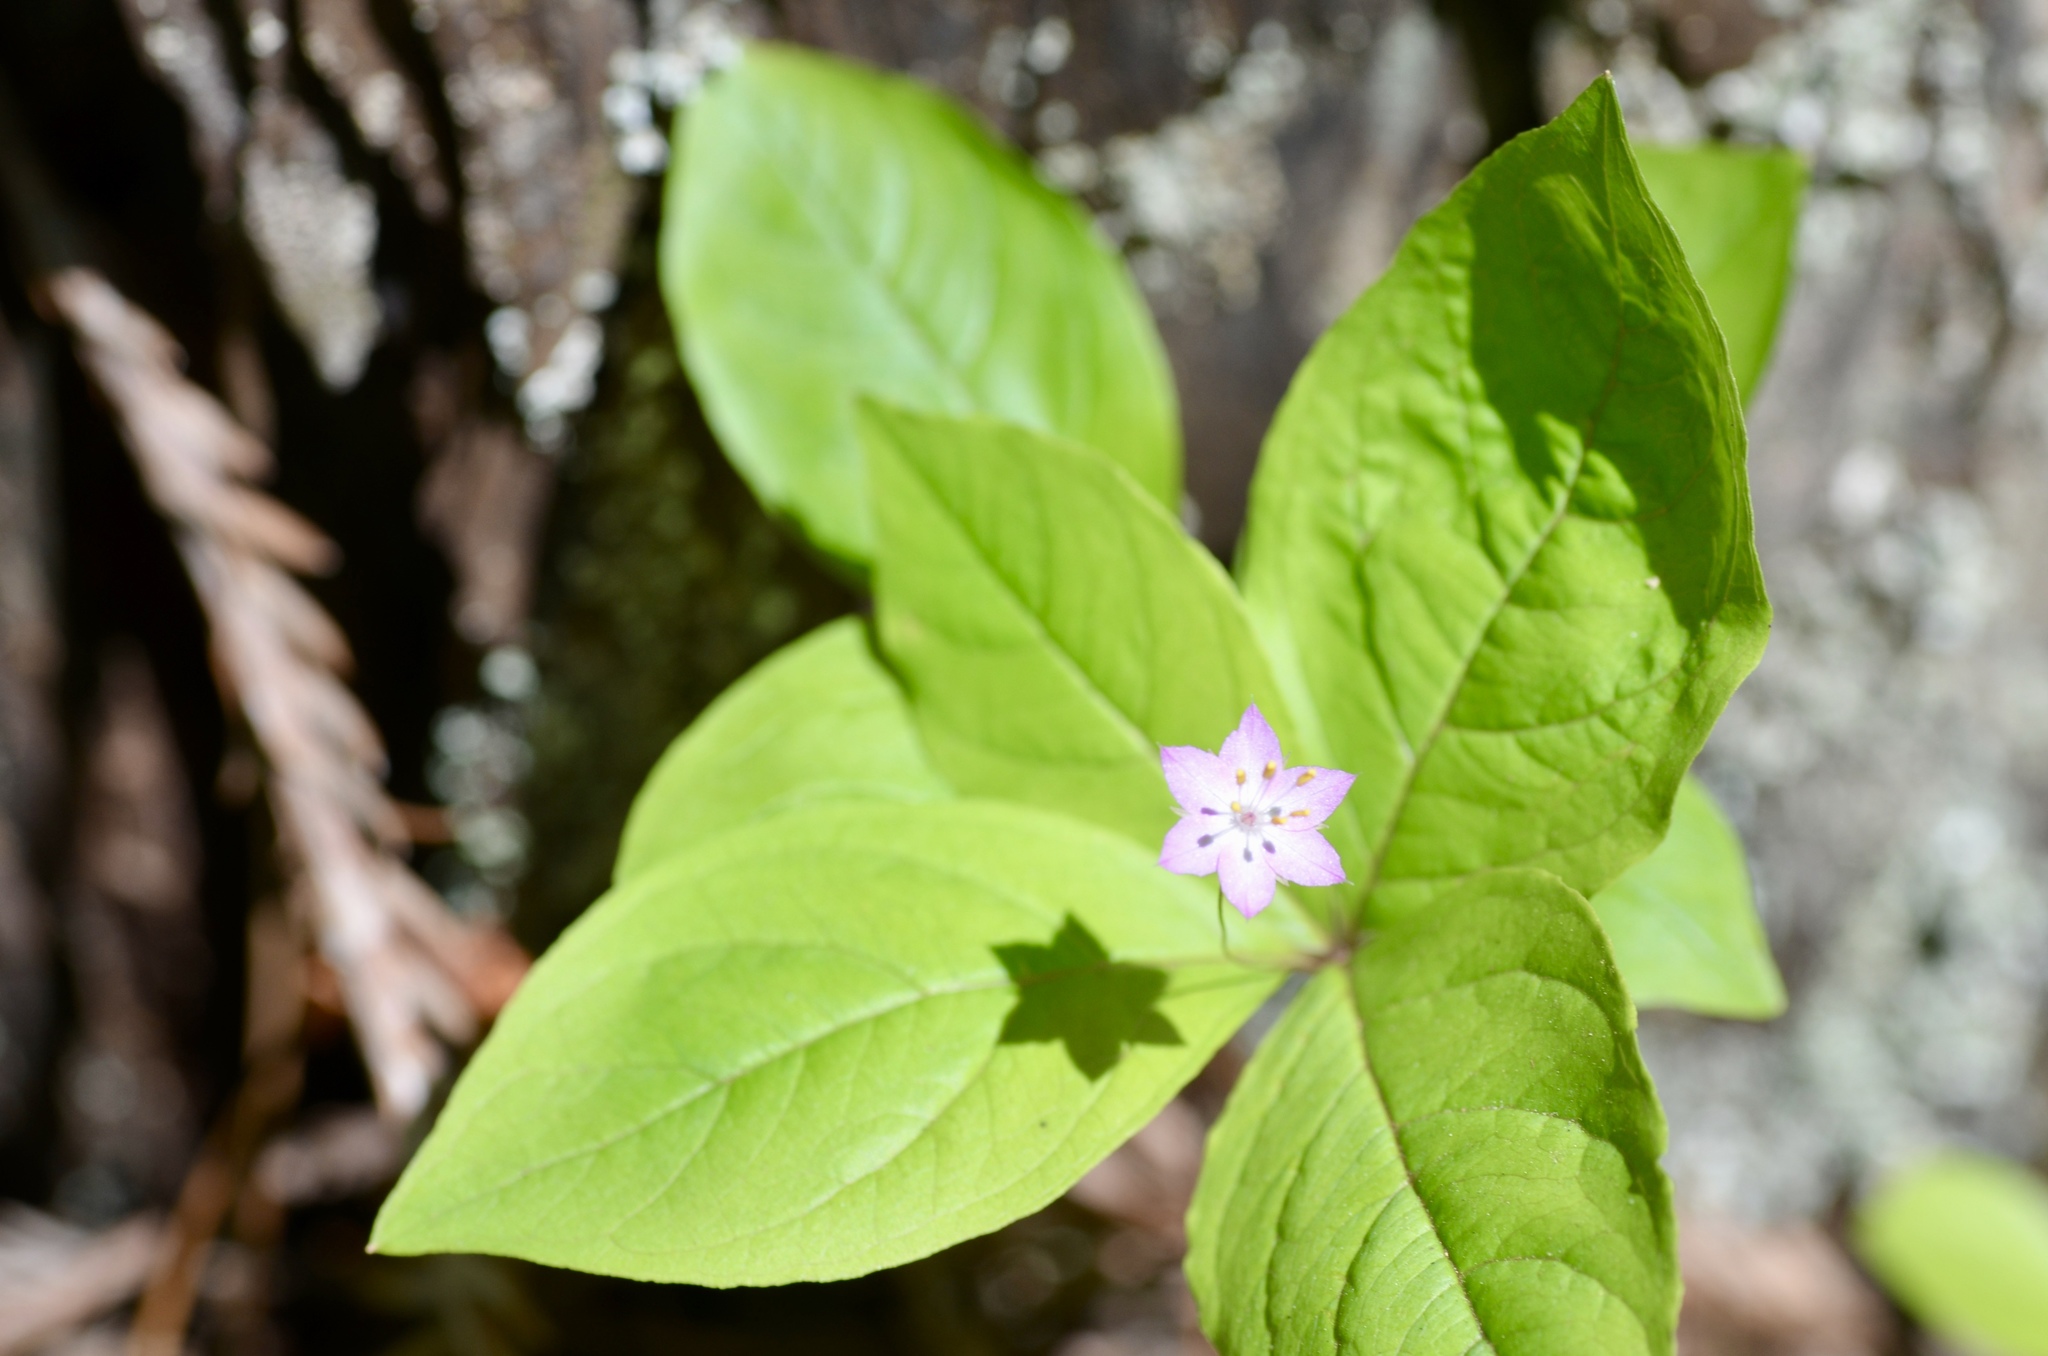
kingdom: Plantae
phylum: Tracheophyta
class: Magnoliopsida
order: Ericales
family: Primulaceae
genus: Lysimachia
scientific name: Lysimachia latifolia
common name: Pacific starflower
